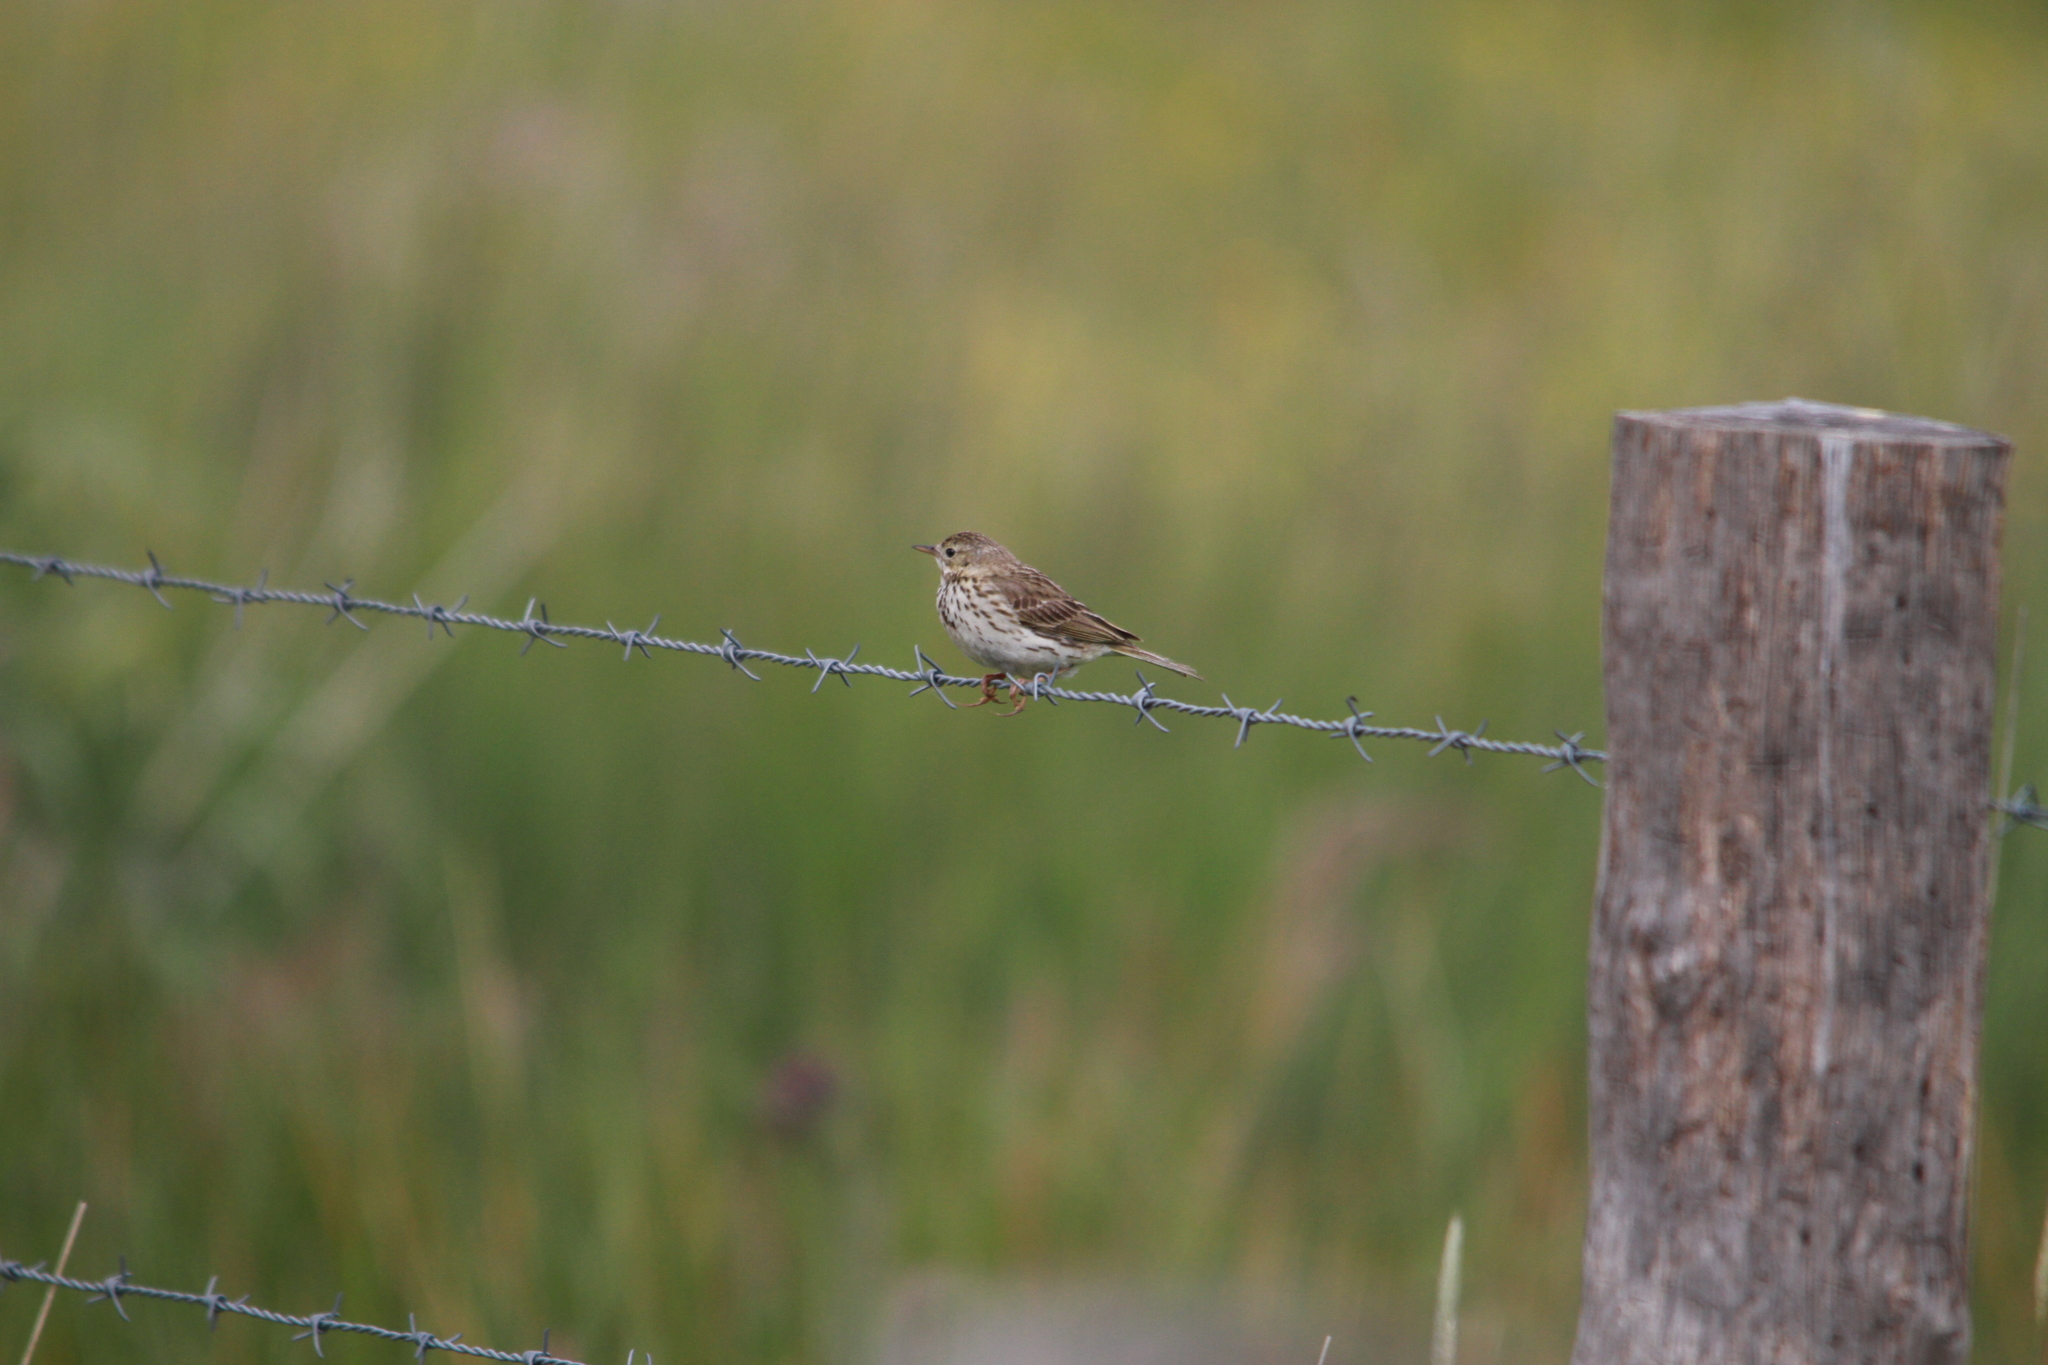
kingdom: Animalia
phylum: Chordata
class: Aves
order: Passeriformes
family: Motacillidae
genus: Anthus
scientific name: Anthus pratensis
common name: Meadow pipit
